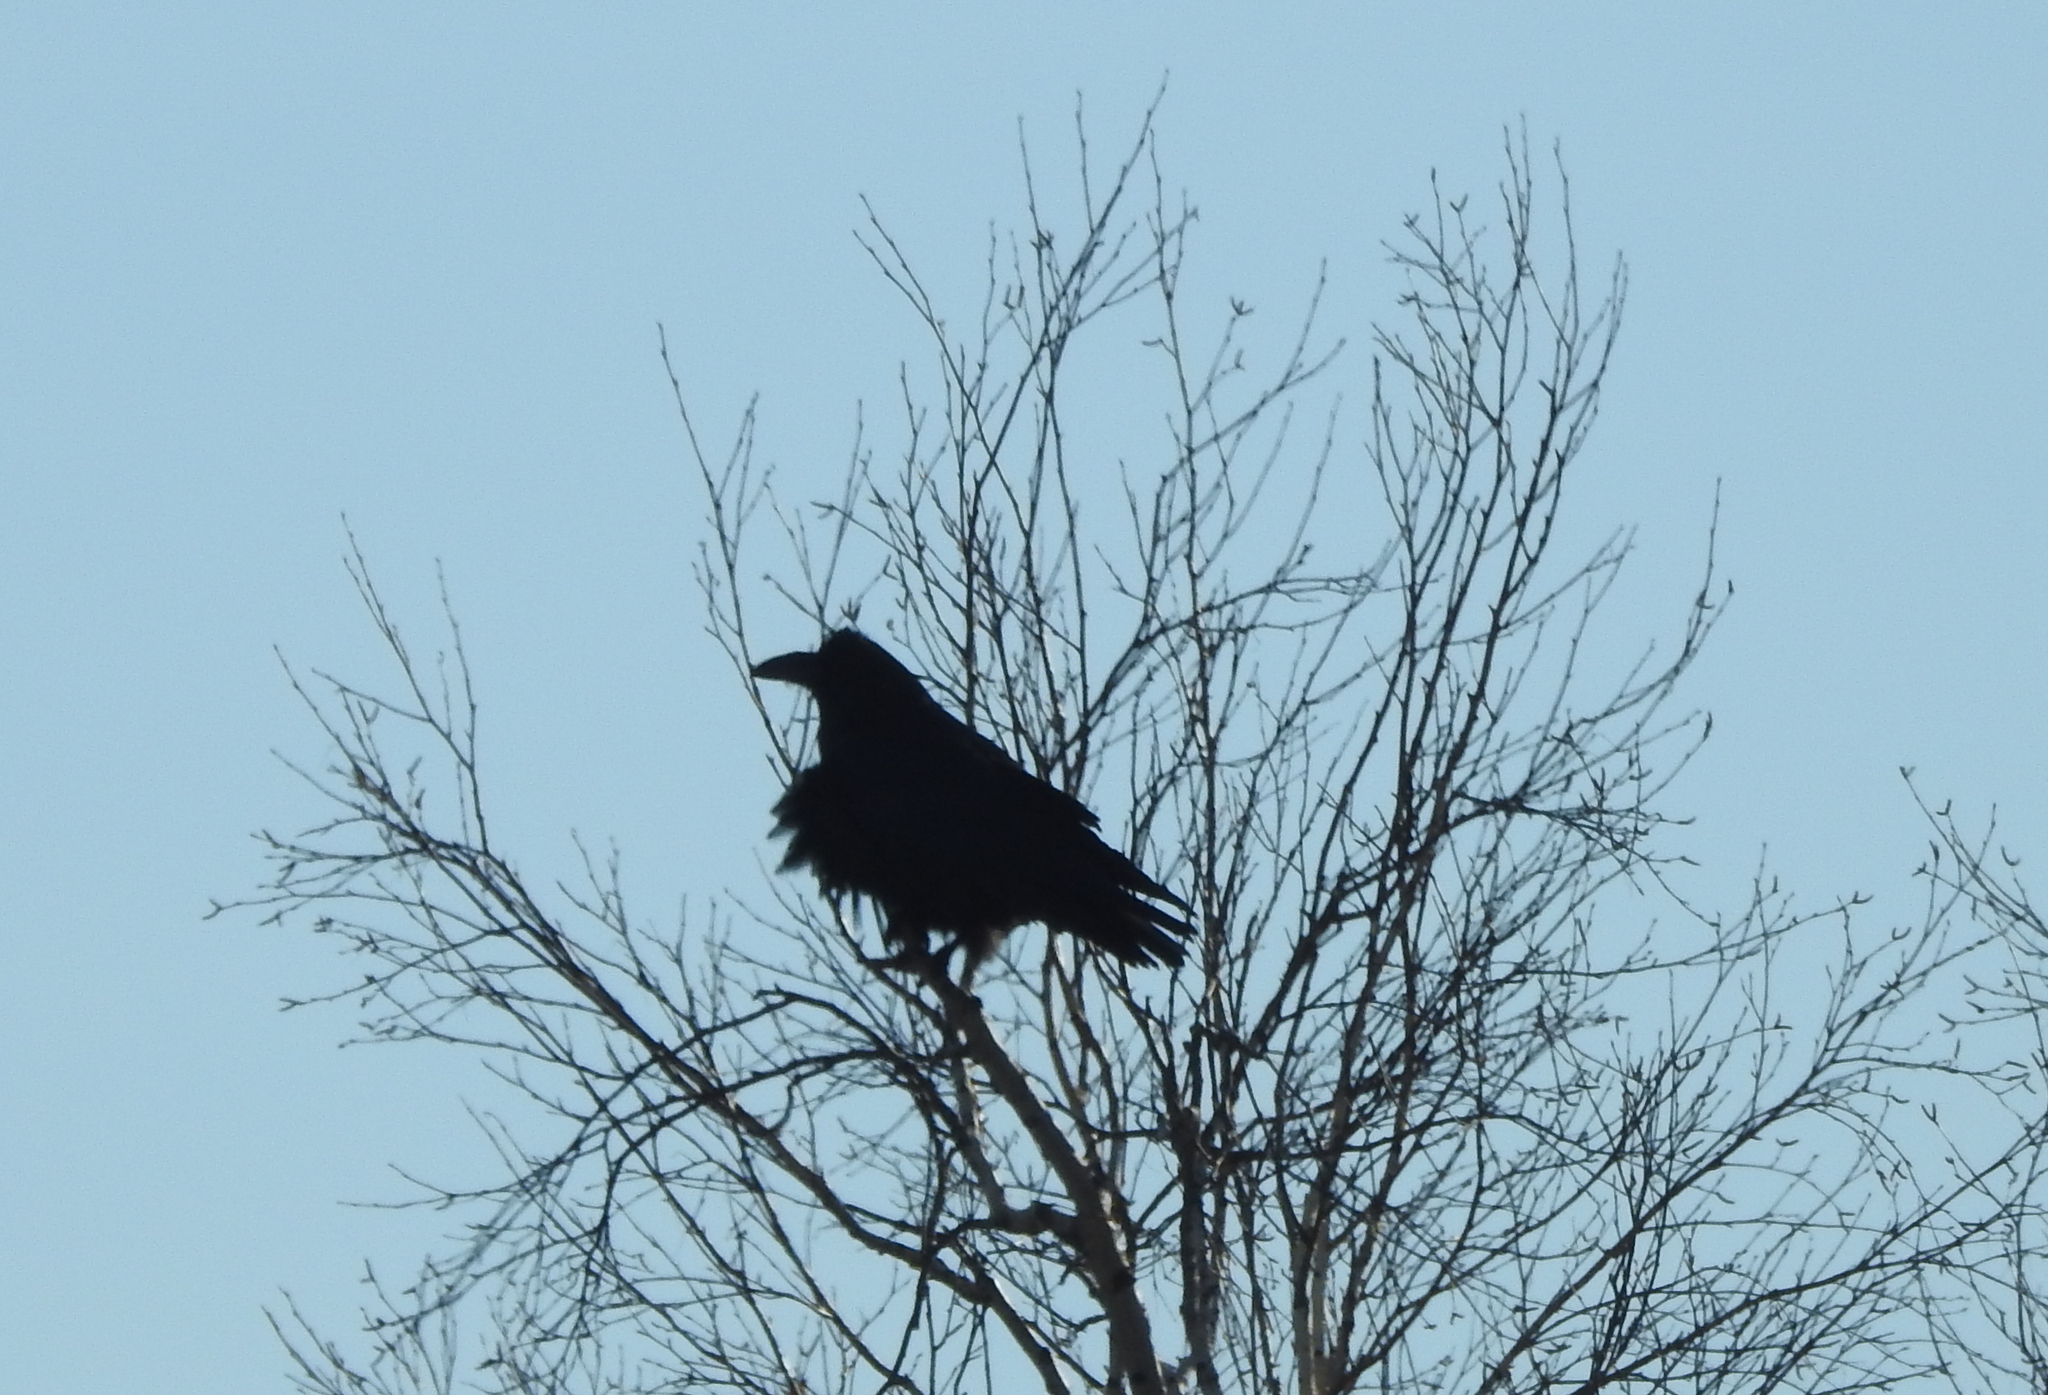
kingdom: Animalia
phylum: Chordata
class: Aves
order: Passeriformes
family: Corvidae
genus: Corvus
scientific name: Corvus corax
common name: Common raven
